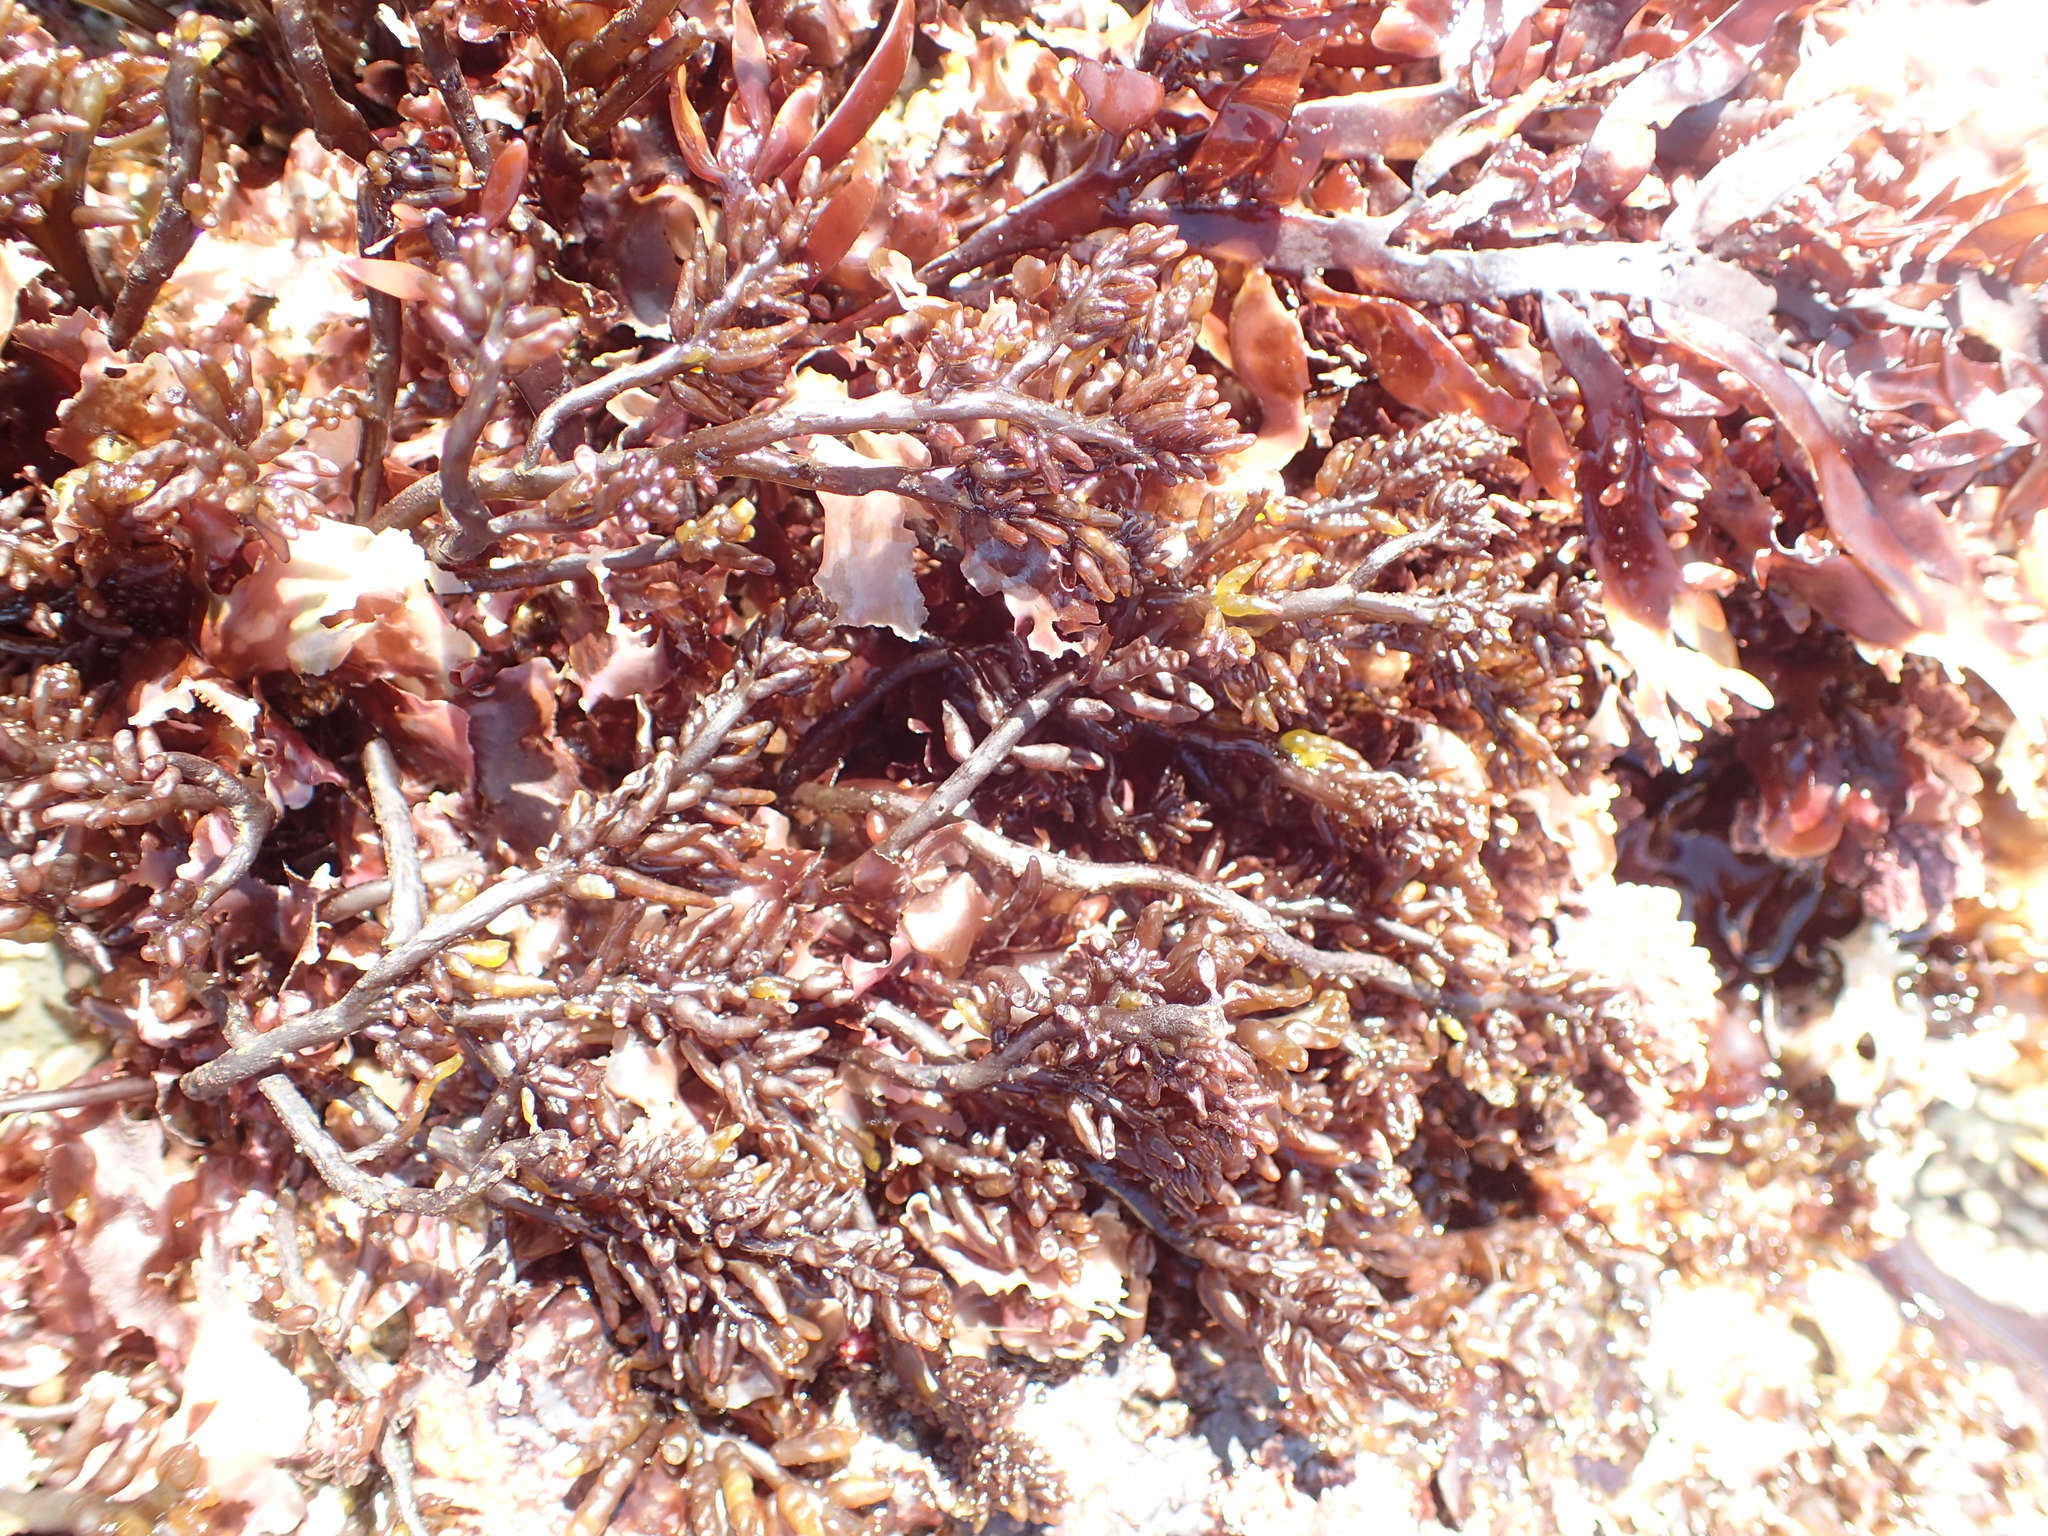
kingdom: Plantae
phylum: Rhodophyta
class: Florideophyceae
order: Rhodymeniales
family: Champiaceae
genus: Neogastroclonium
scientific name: Neogastroclonium subarticulatum
